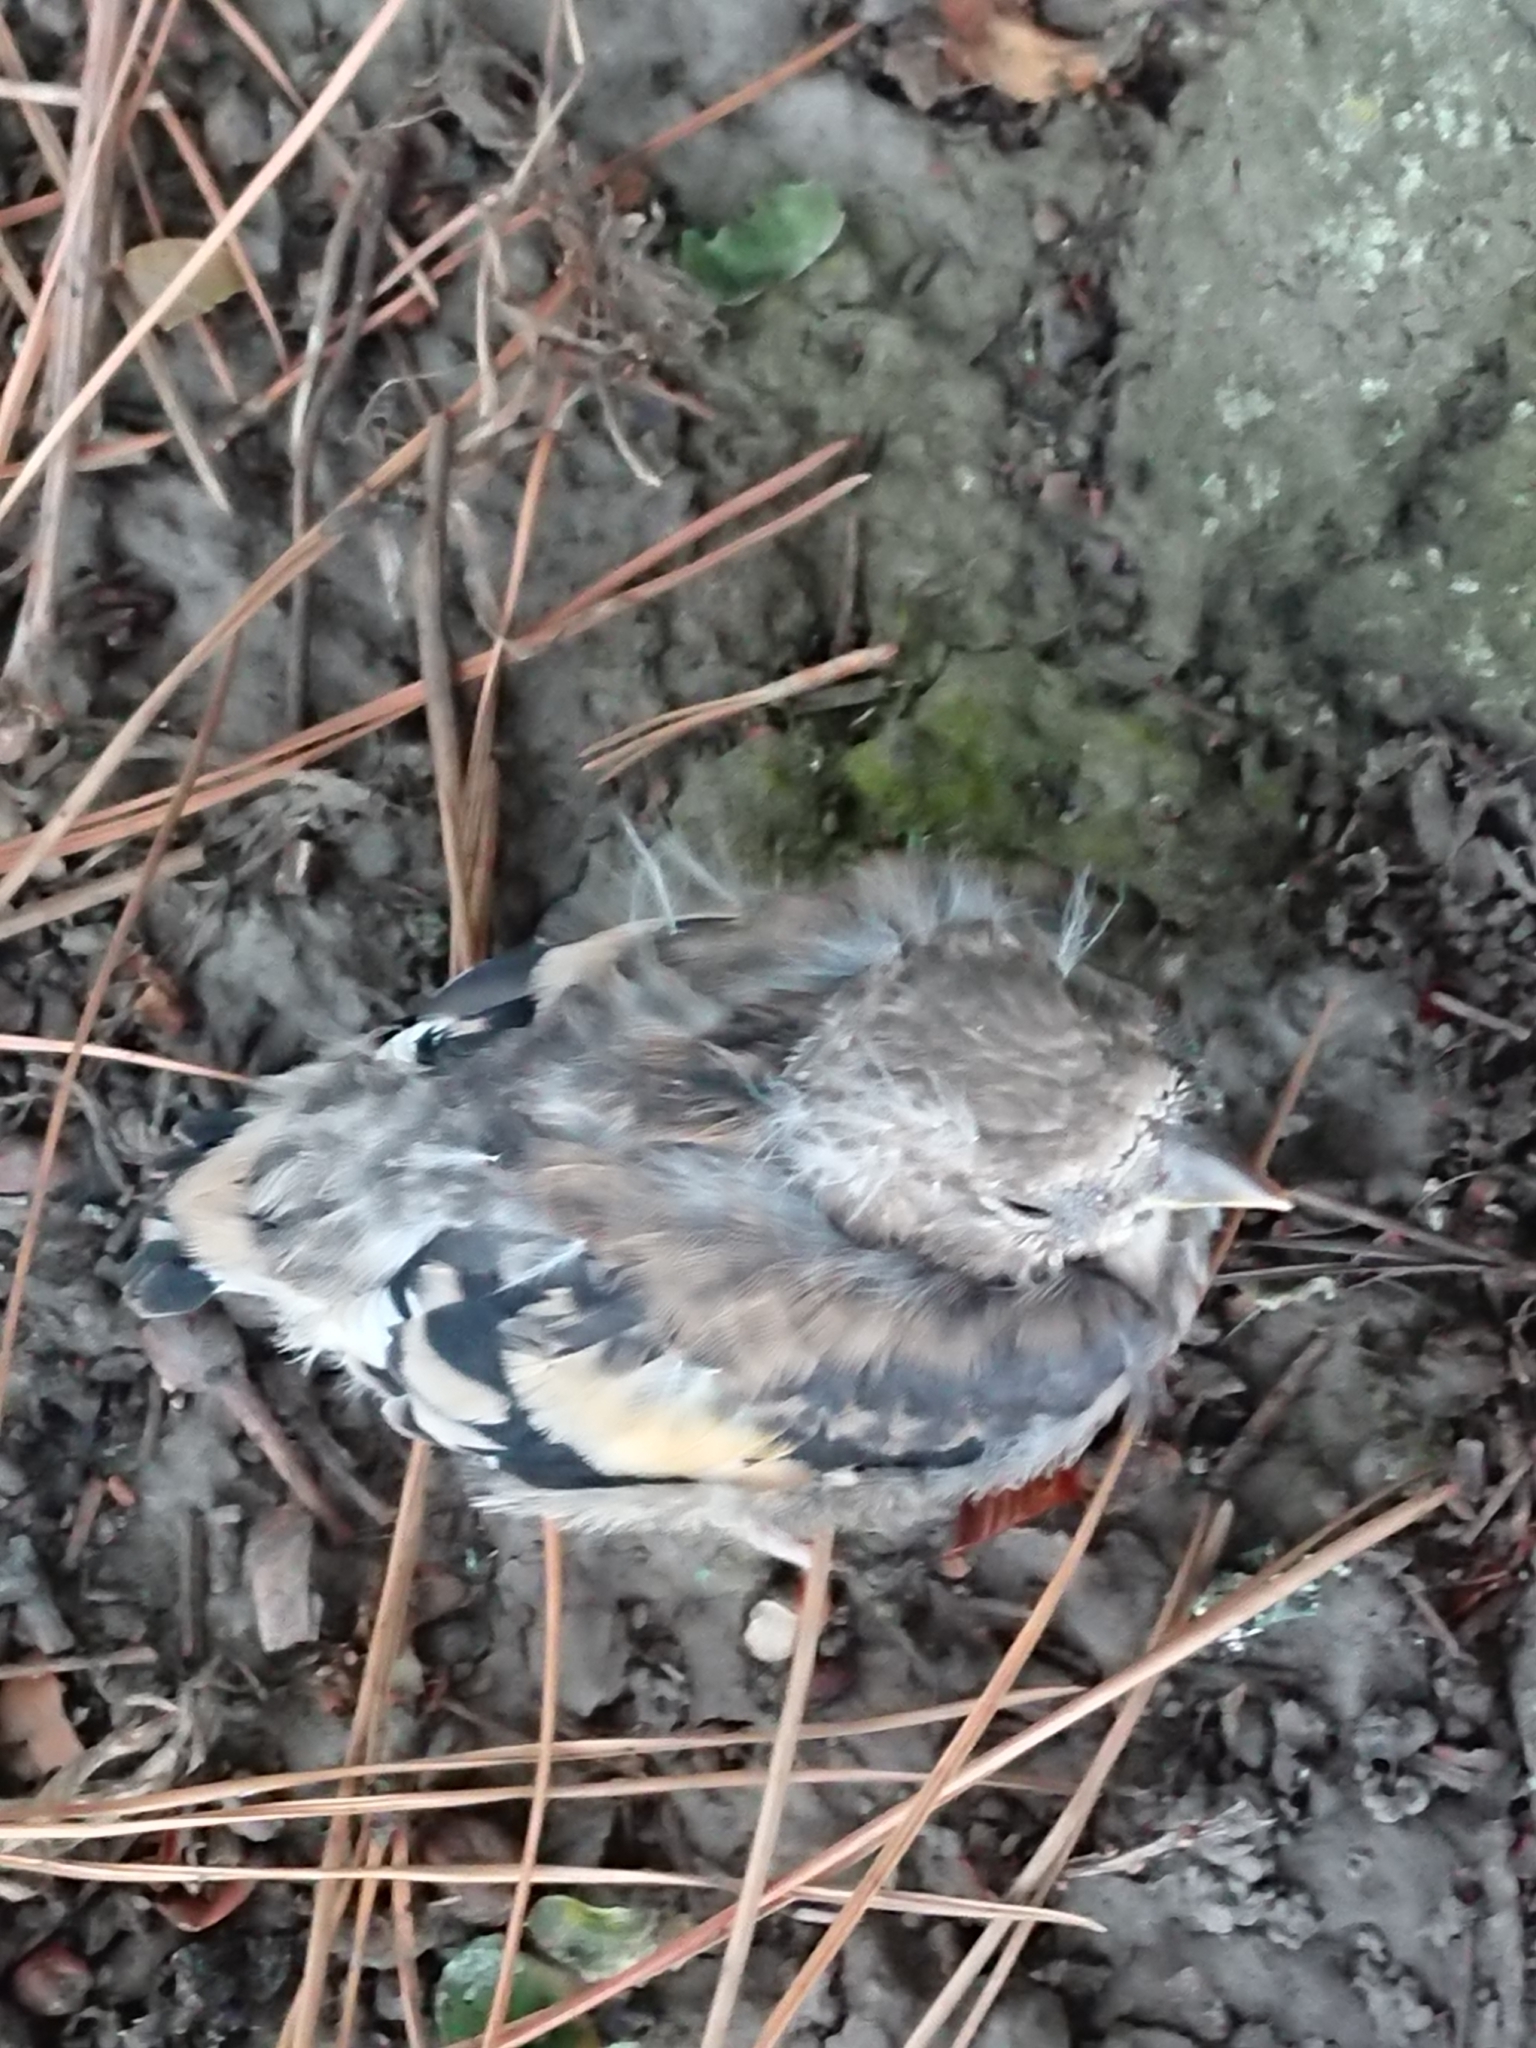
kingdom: Animalia
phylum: Chordata
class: Aves
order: Passeriformes
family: Fringillidae
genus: Carduelis
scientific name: Carduelis carduelis
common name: European goldfinch
